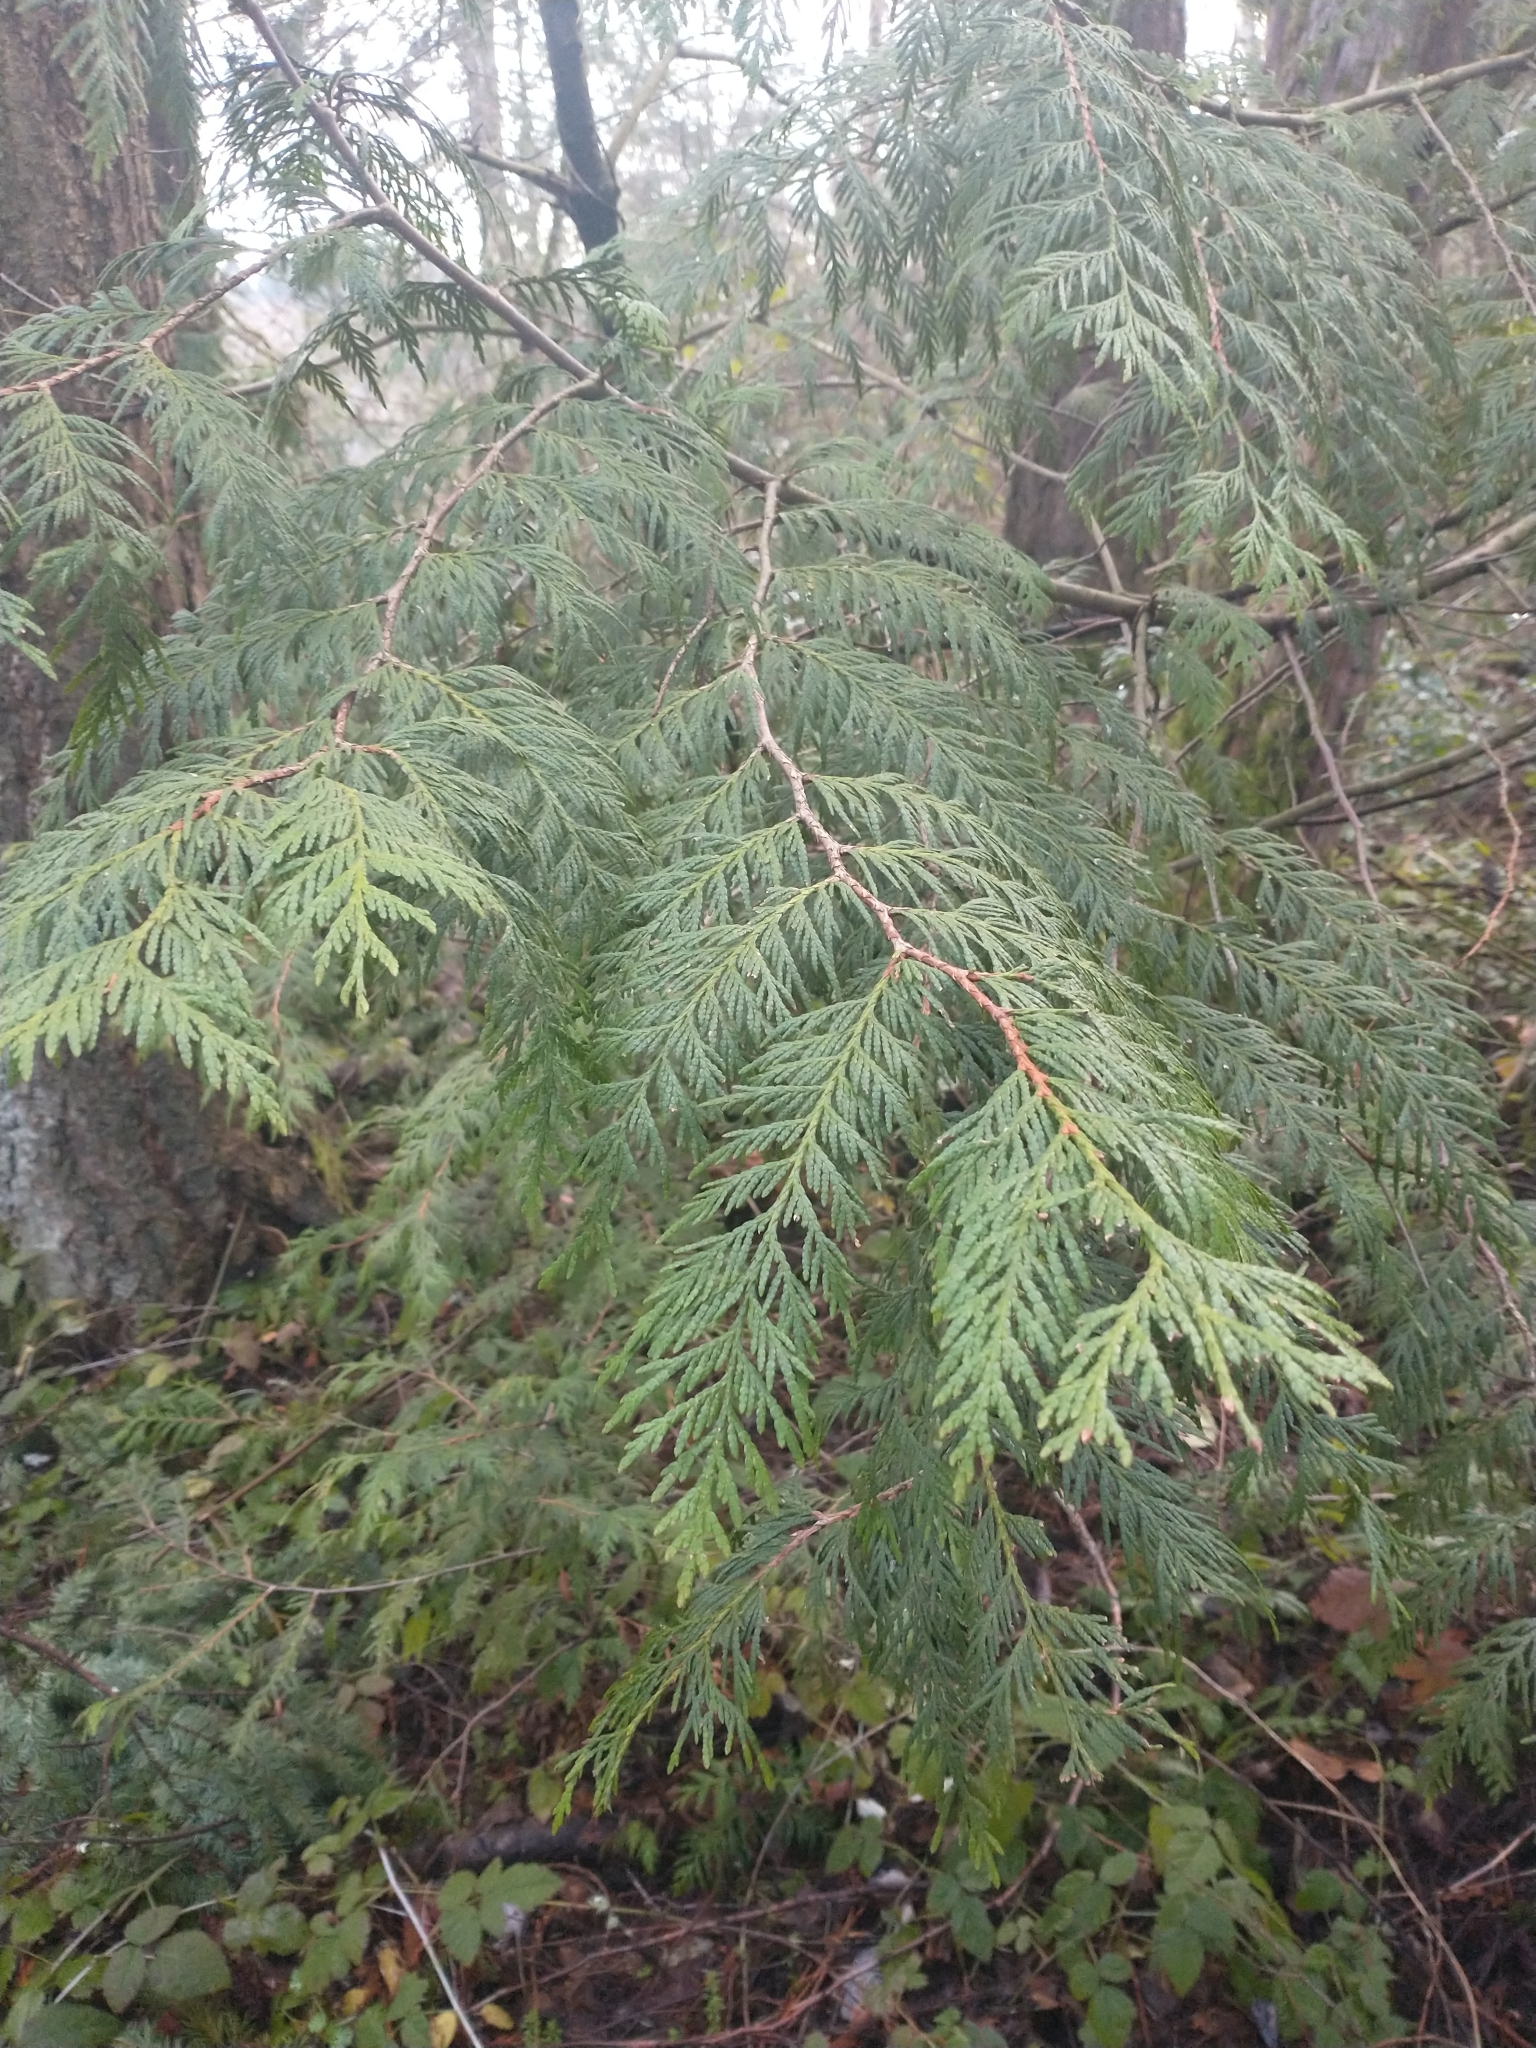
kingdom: Plantae
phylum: Tracheophyta
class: Pinopsida
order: Pinales
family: Cupressaceae
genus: Thuja
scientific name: Thuja plicata
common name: Western red-cedar
